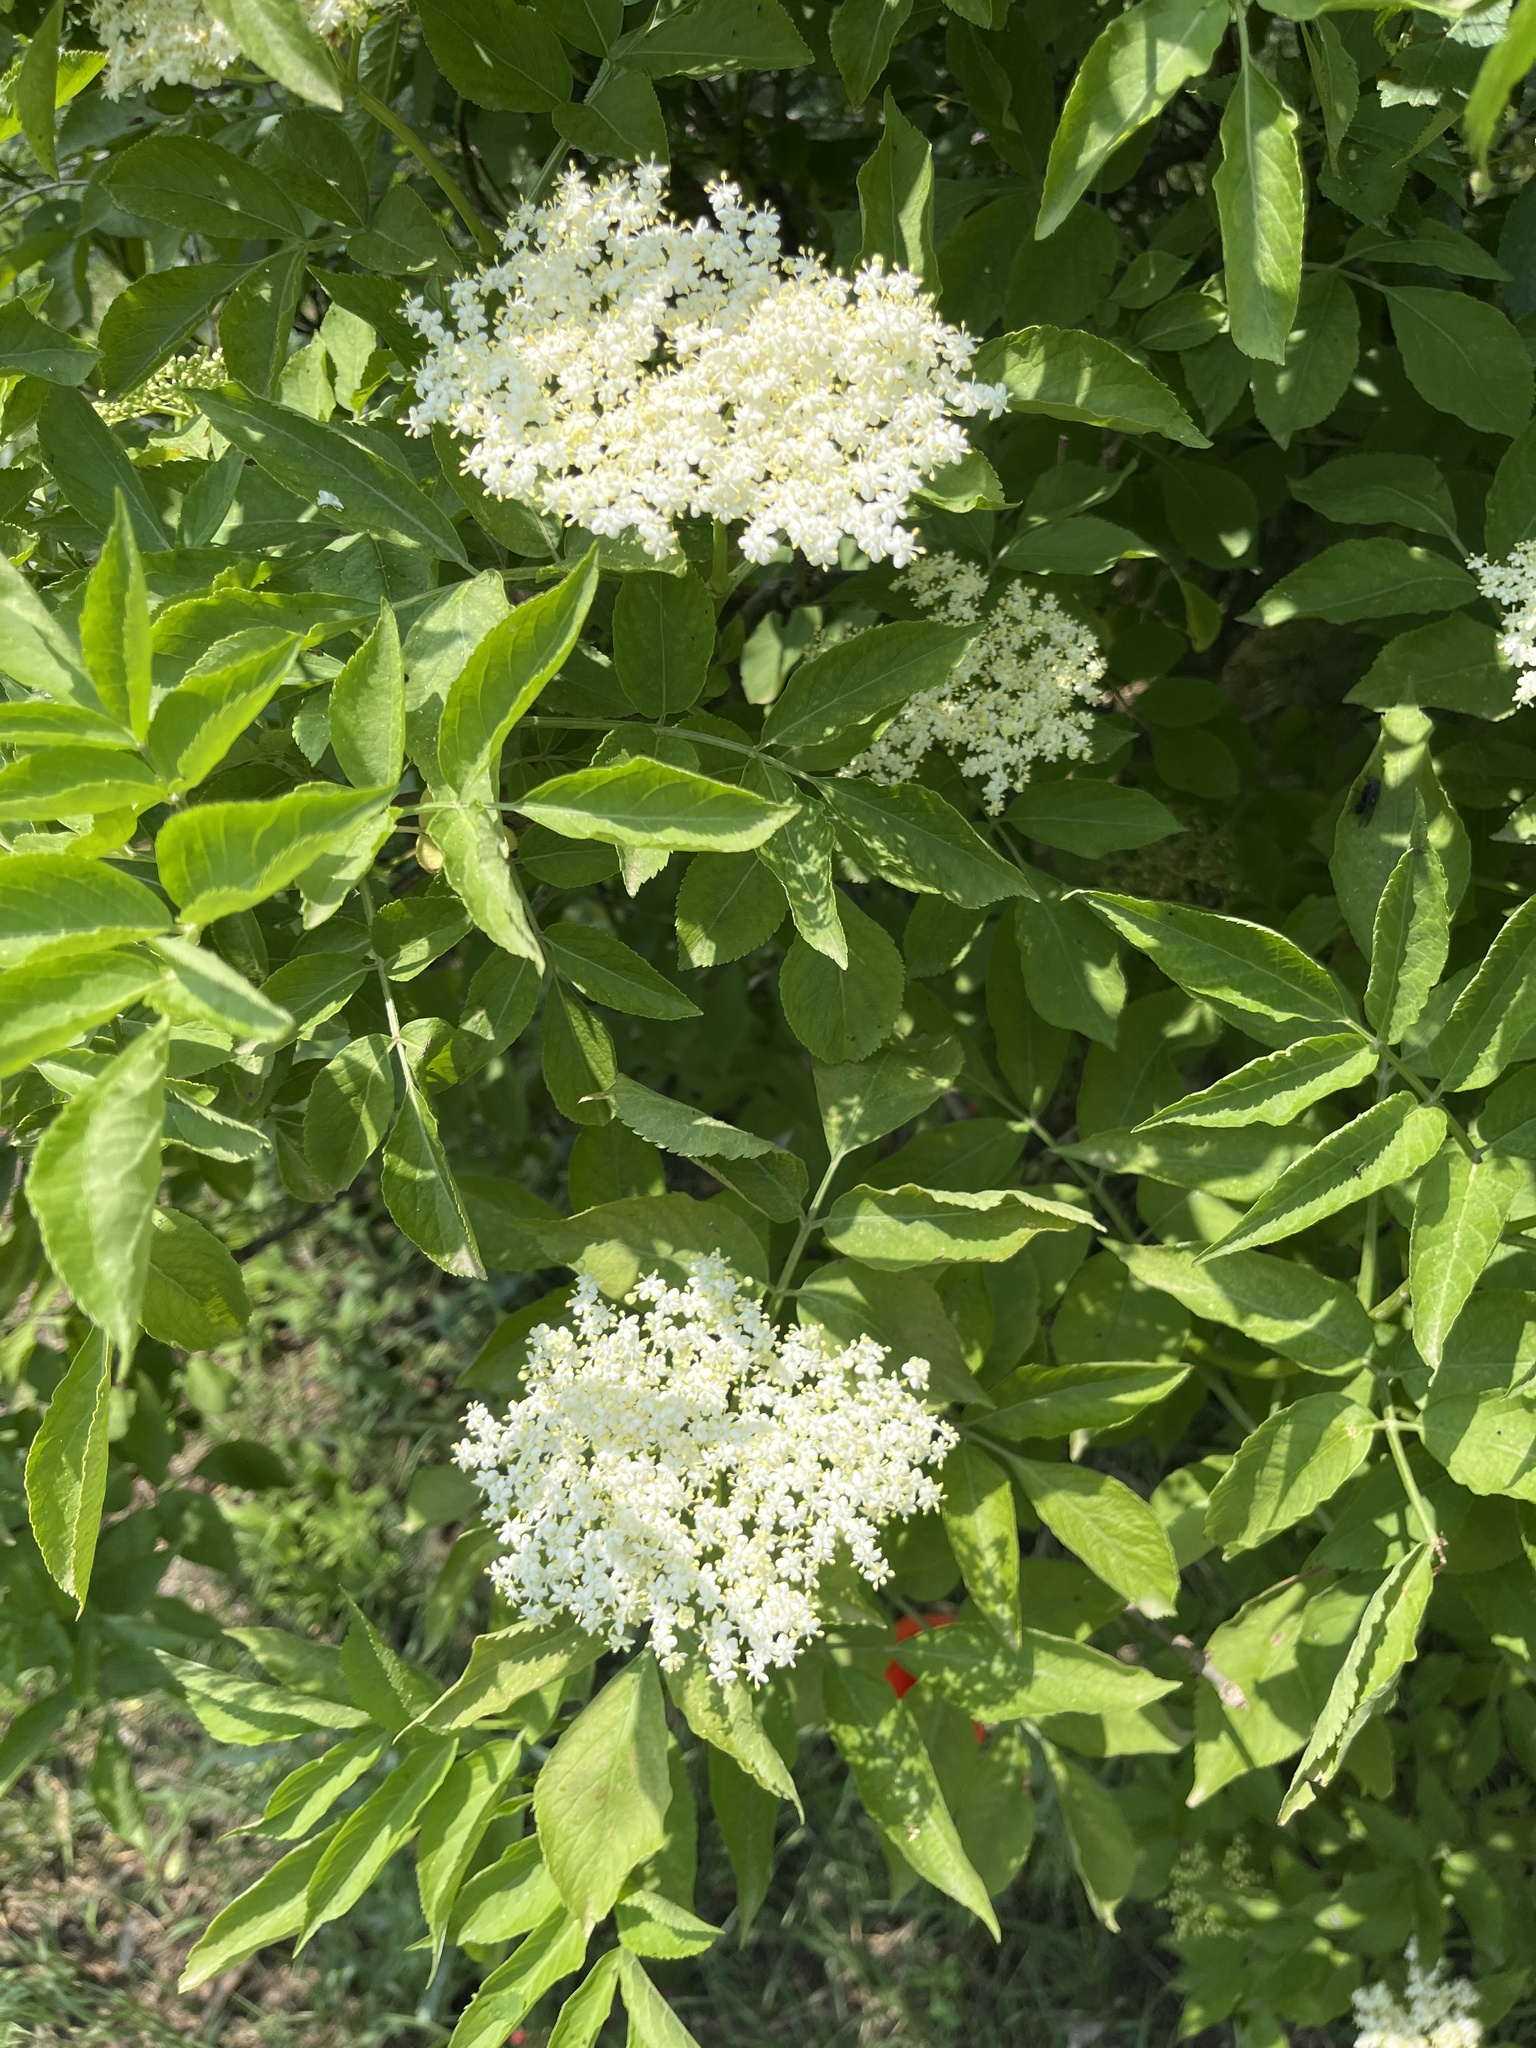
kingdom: Plantae
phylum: Tracheophyta
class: Magnoliopsida
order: Dipsacales
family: Viburnaceae
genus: Sambucus
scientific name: Sambucus nigra
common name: Elder
